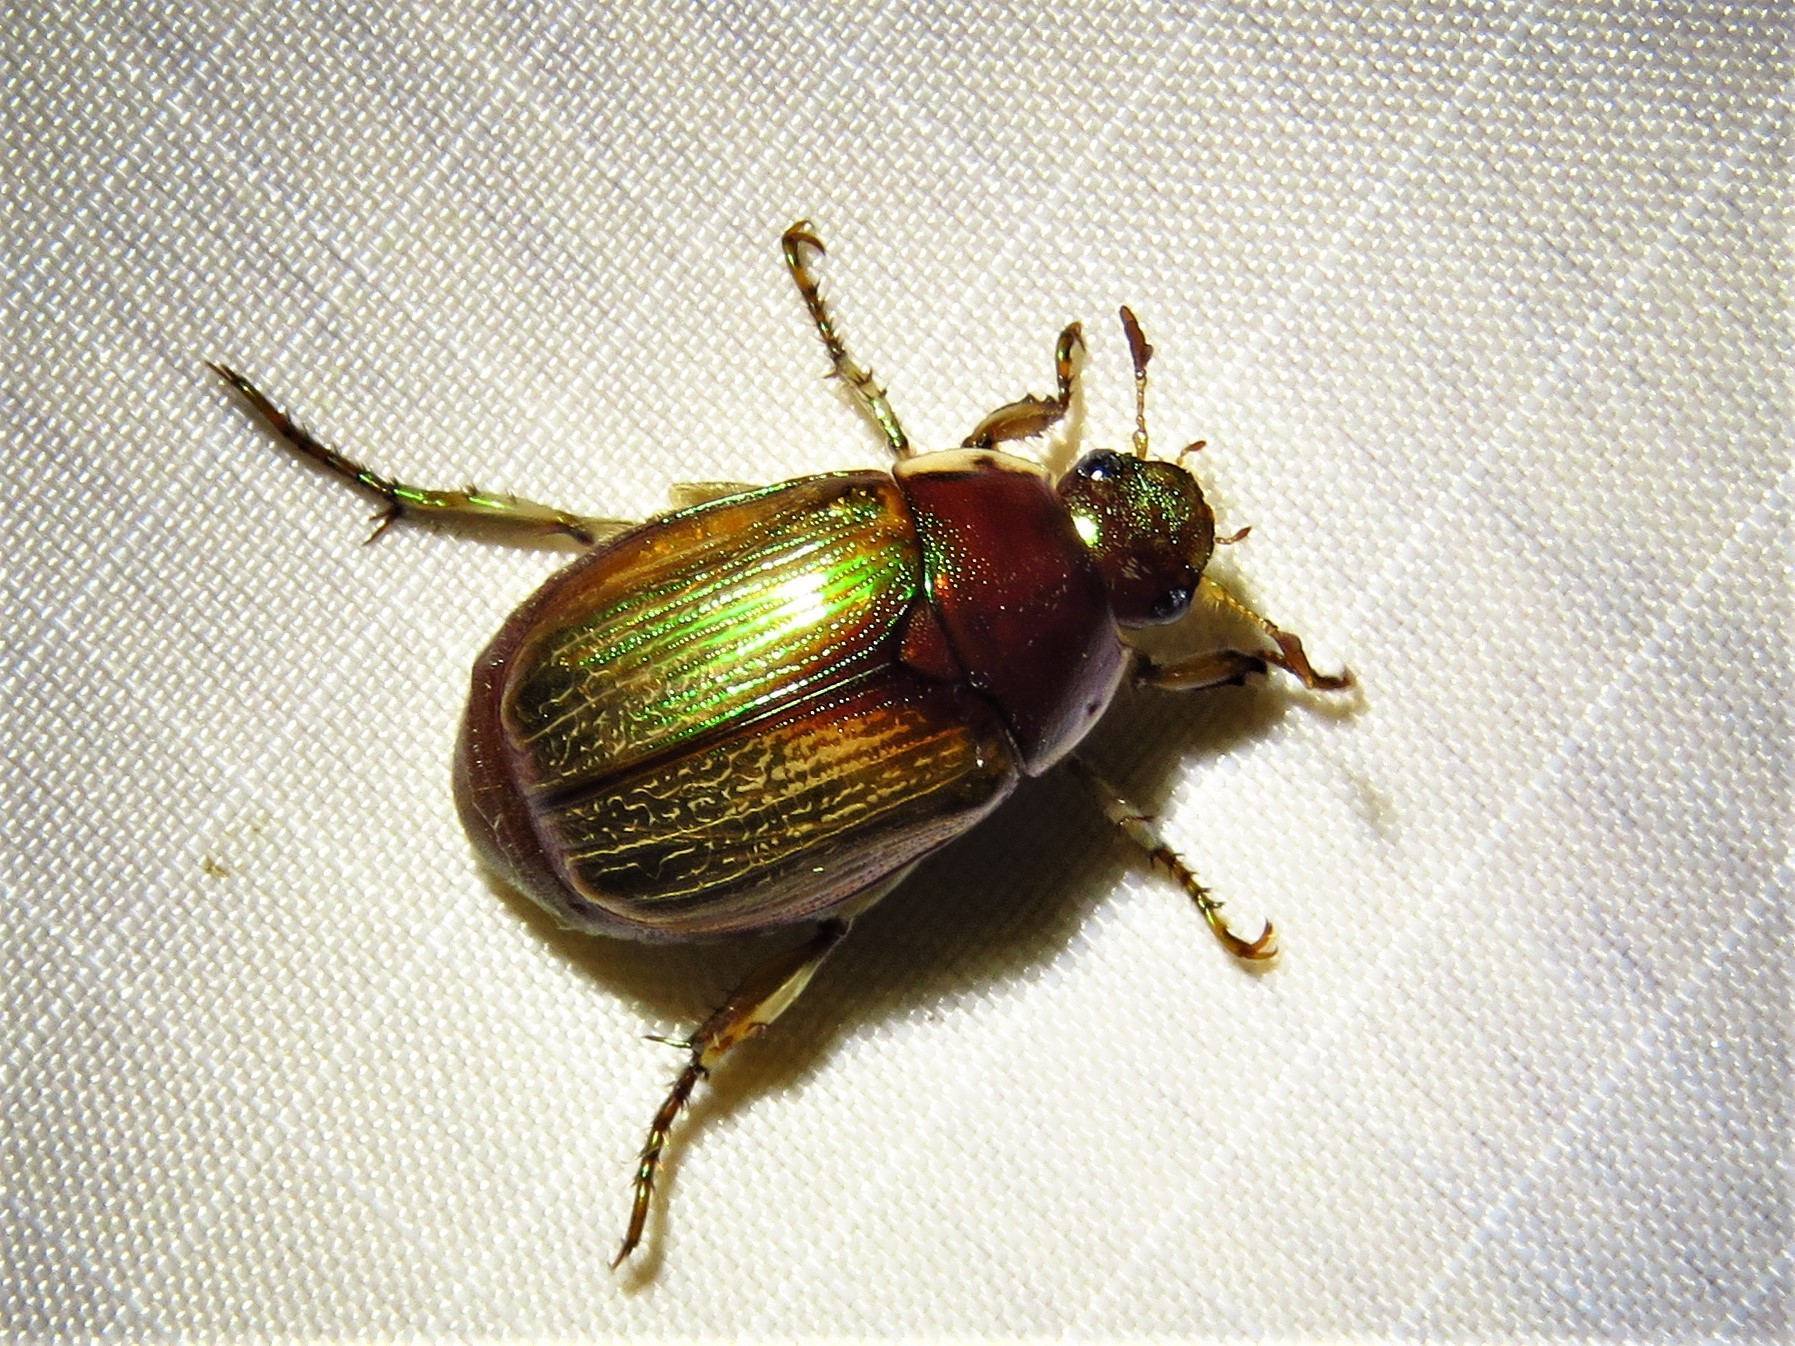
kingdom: Animalia
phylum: Arthropoda
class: Insecta
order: Coleoptera
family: Scarabaeidae
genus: Callistethus
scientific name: Callistethus marginatus
